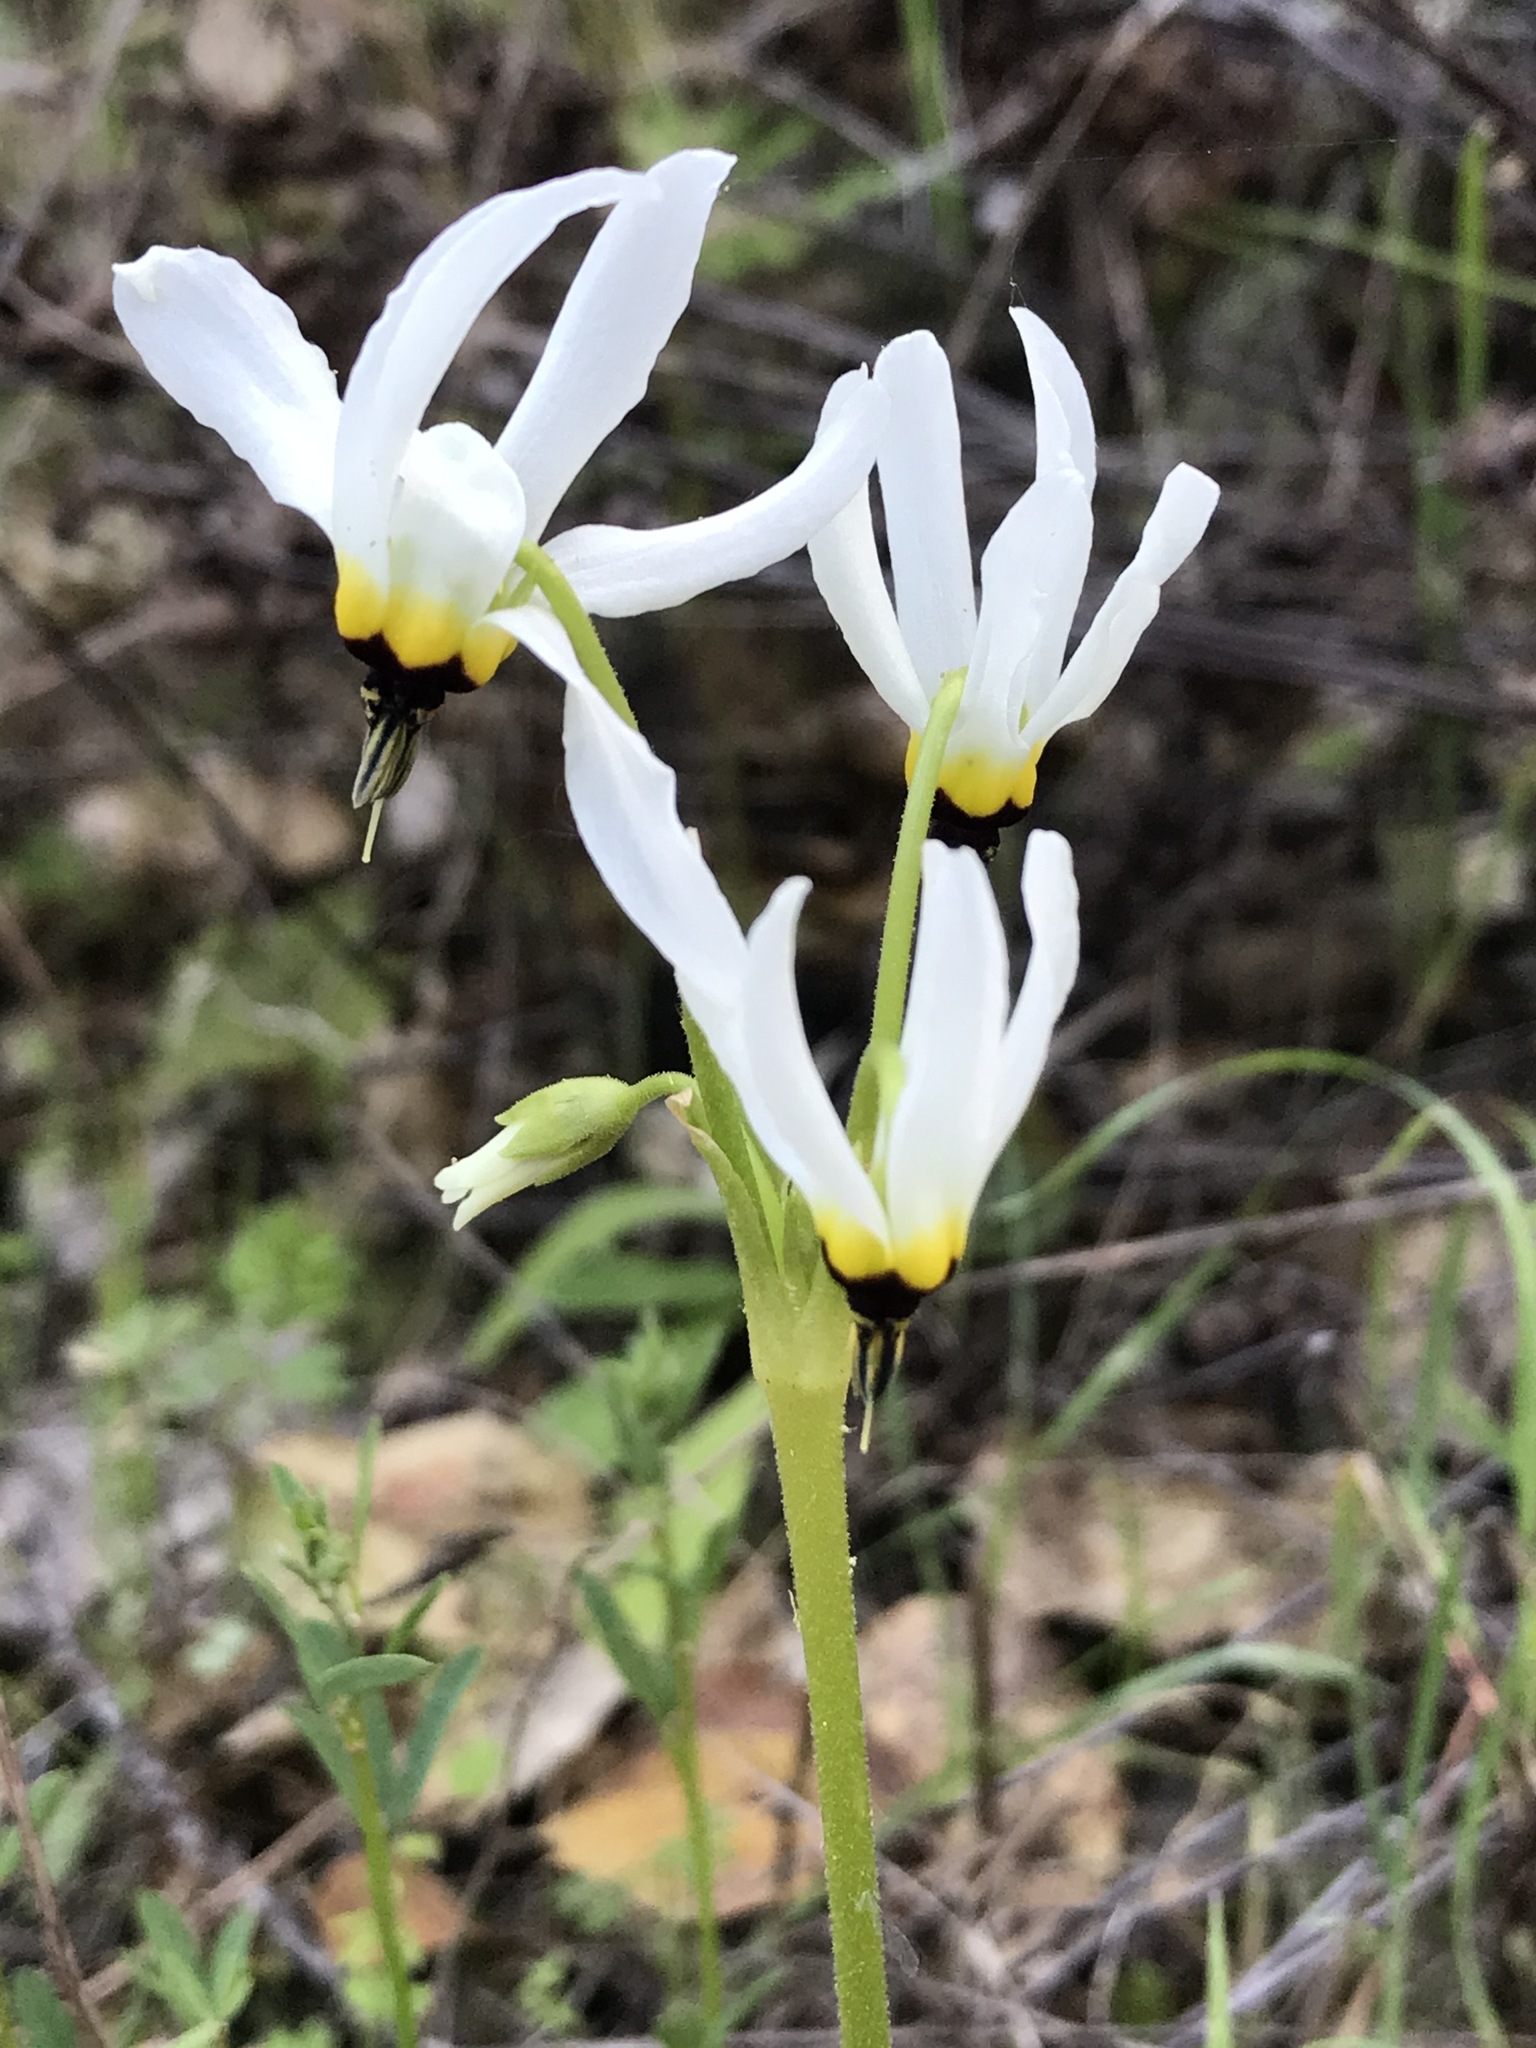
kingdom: Plantae
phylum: Tracheophyta
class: Magnoliopsida
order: Ericales
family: Primulaceae
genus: Dodecatheon
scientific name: Dodecatheon clevelandii
